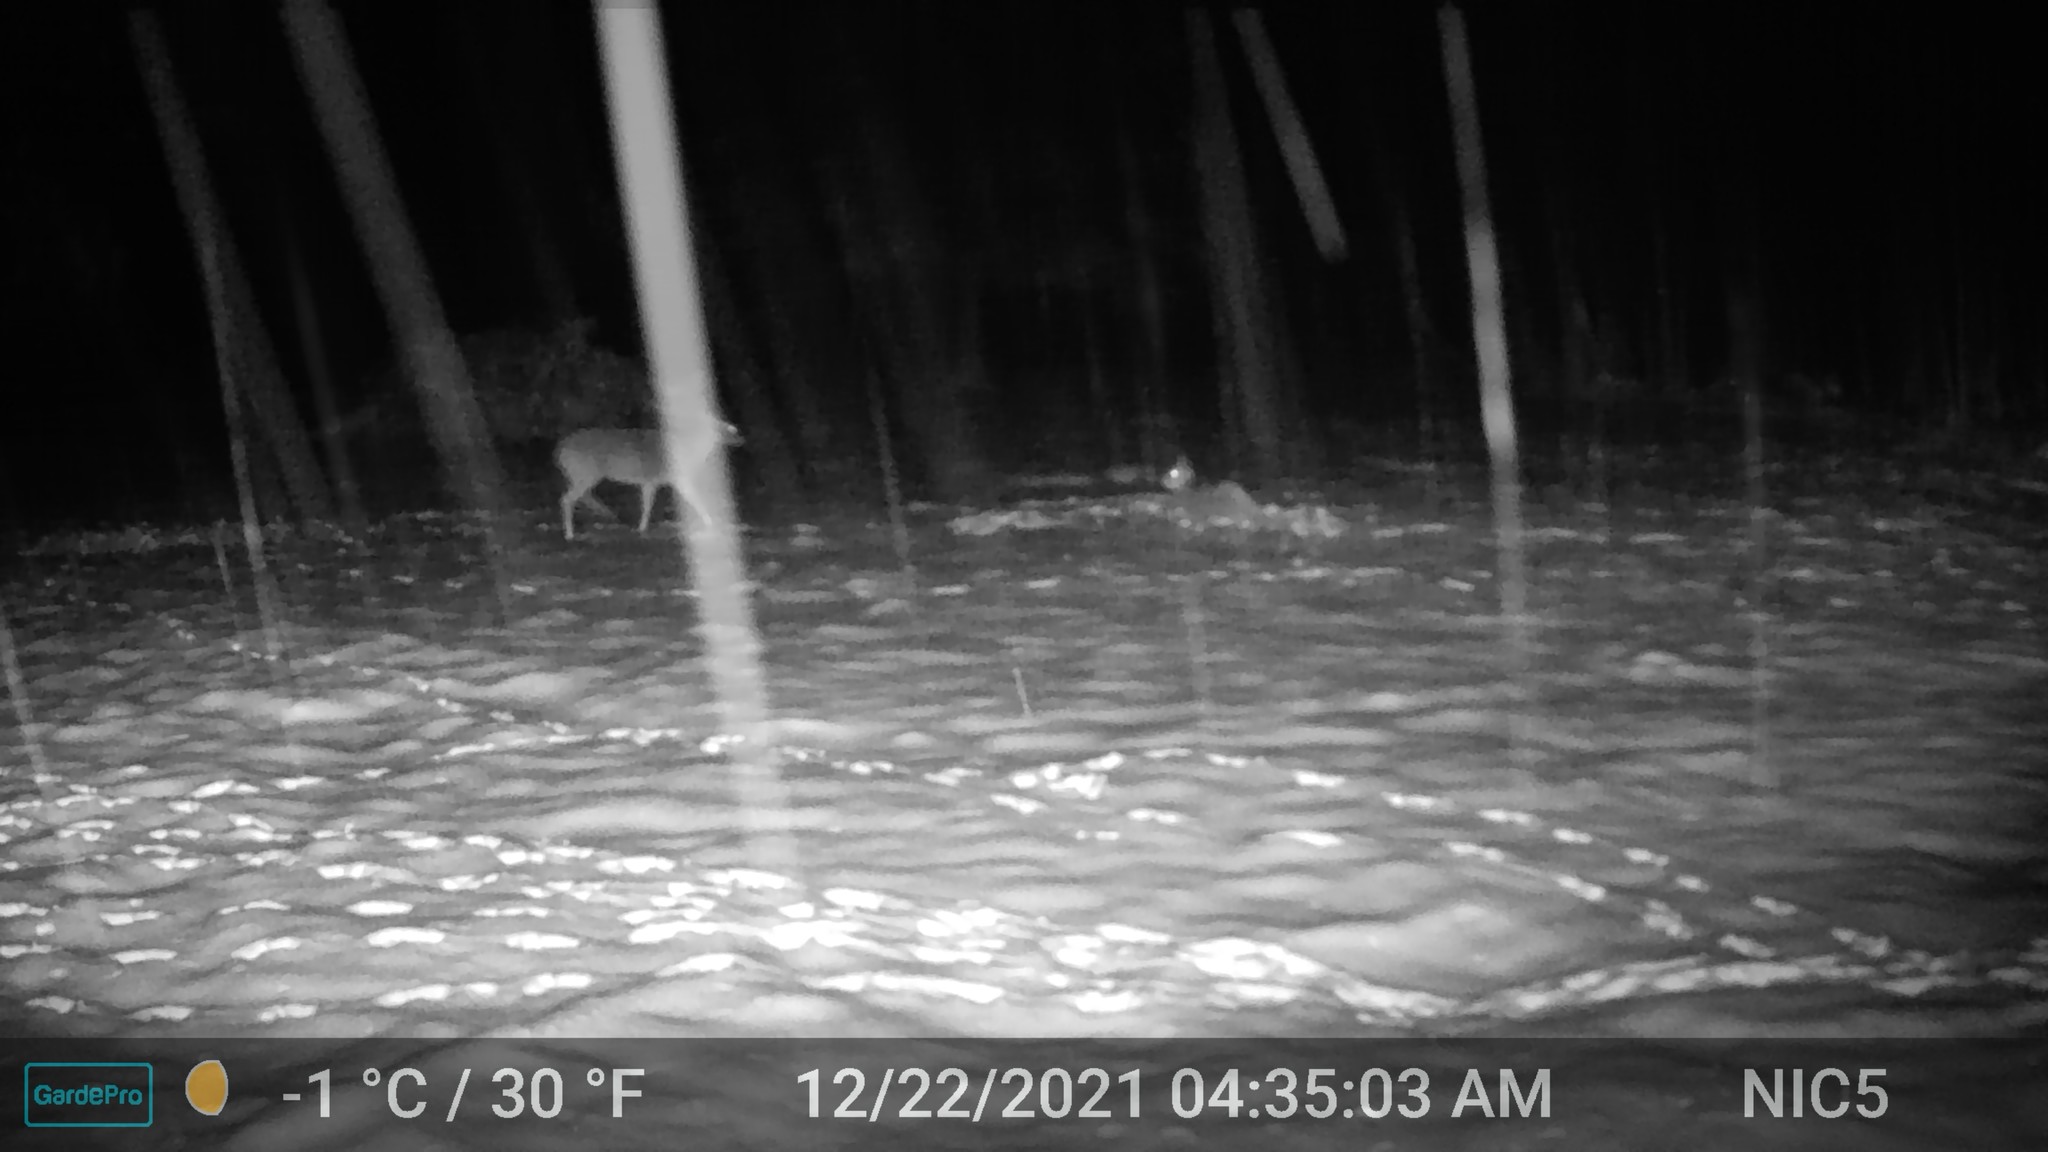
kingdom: Animalia
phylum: Chordata
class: Mammalia
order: Artiodactyla
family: Cervidae
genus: Odocoileus
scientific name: Odocoileus virginianus
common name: White-tailed deer
